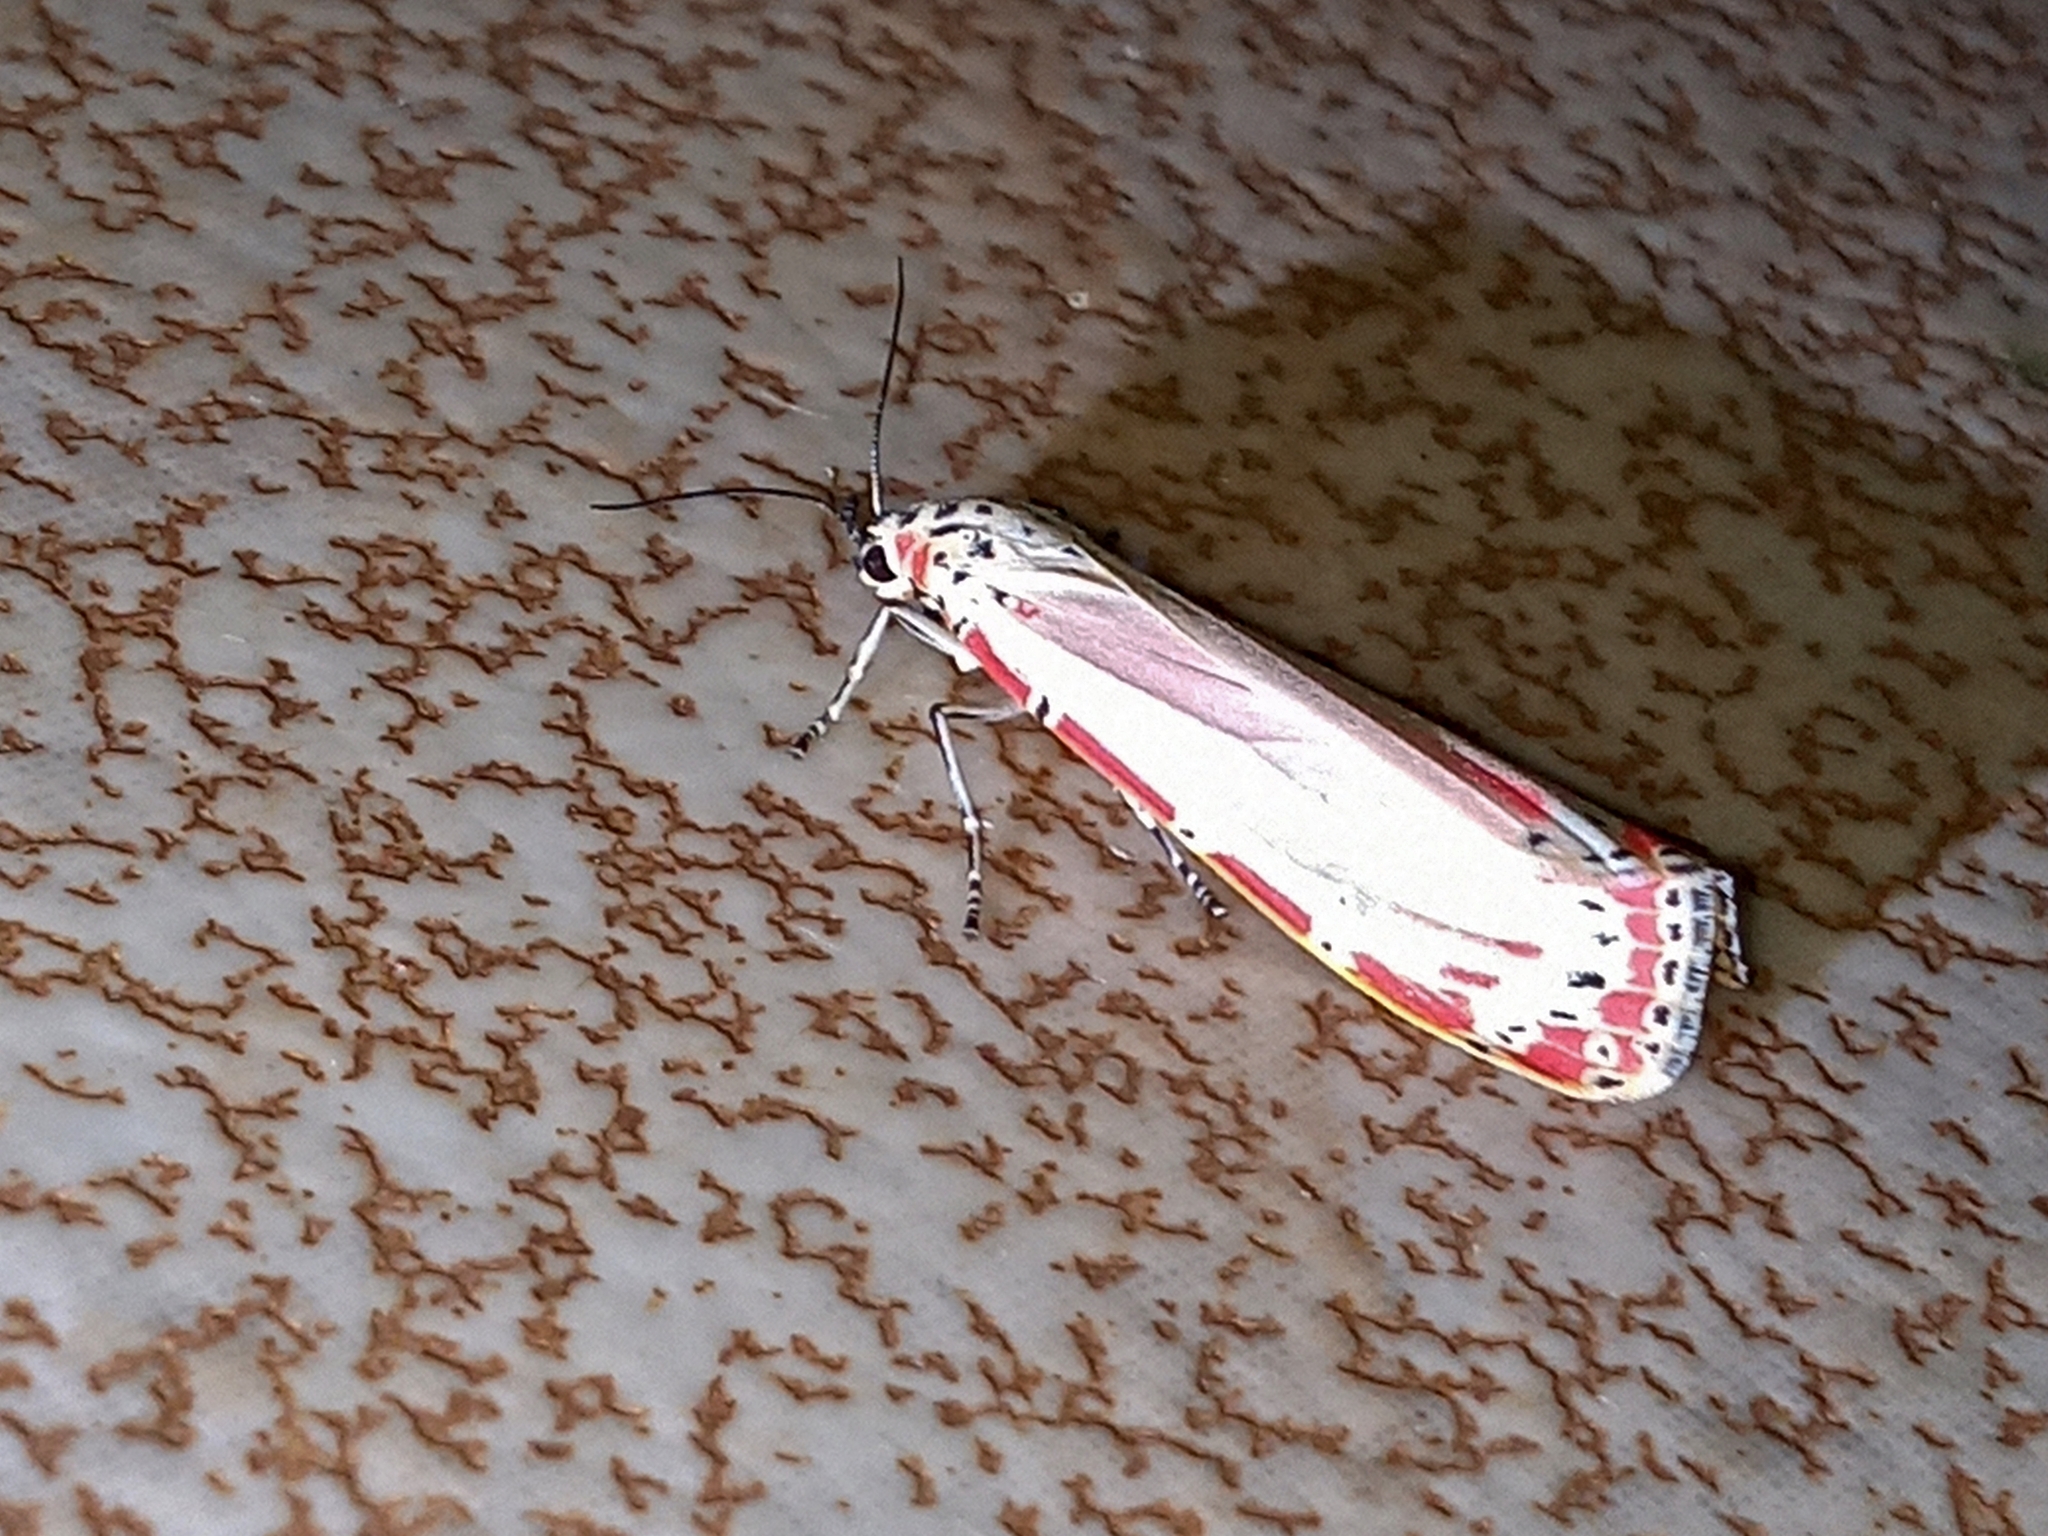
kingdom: Animalia
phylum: Arthropoda
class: Insecta
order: Lepidoptera
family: Erebidae
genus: Utetheisa
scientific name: Utetheisa ornatrix
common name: Beautiful utetheisa
